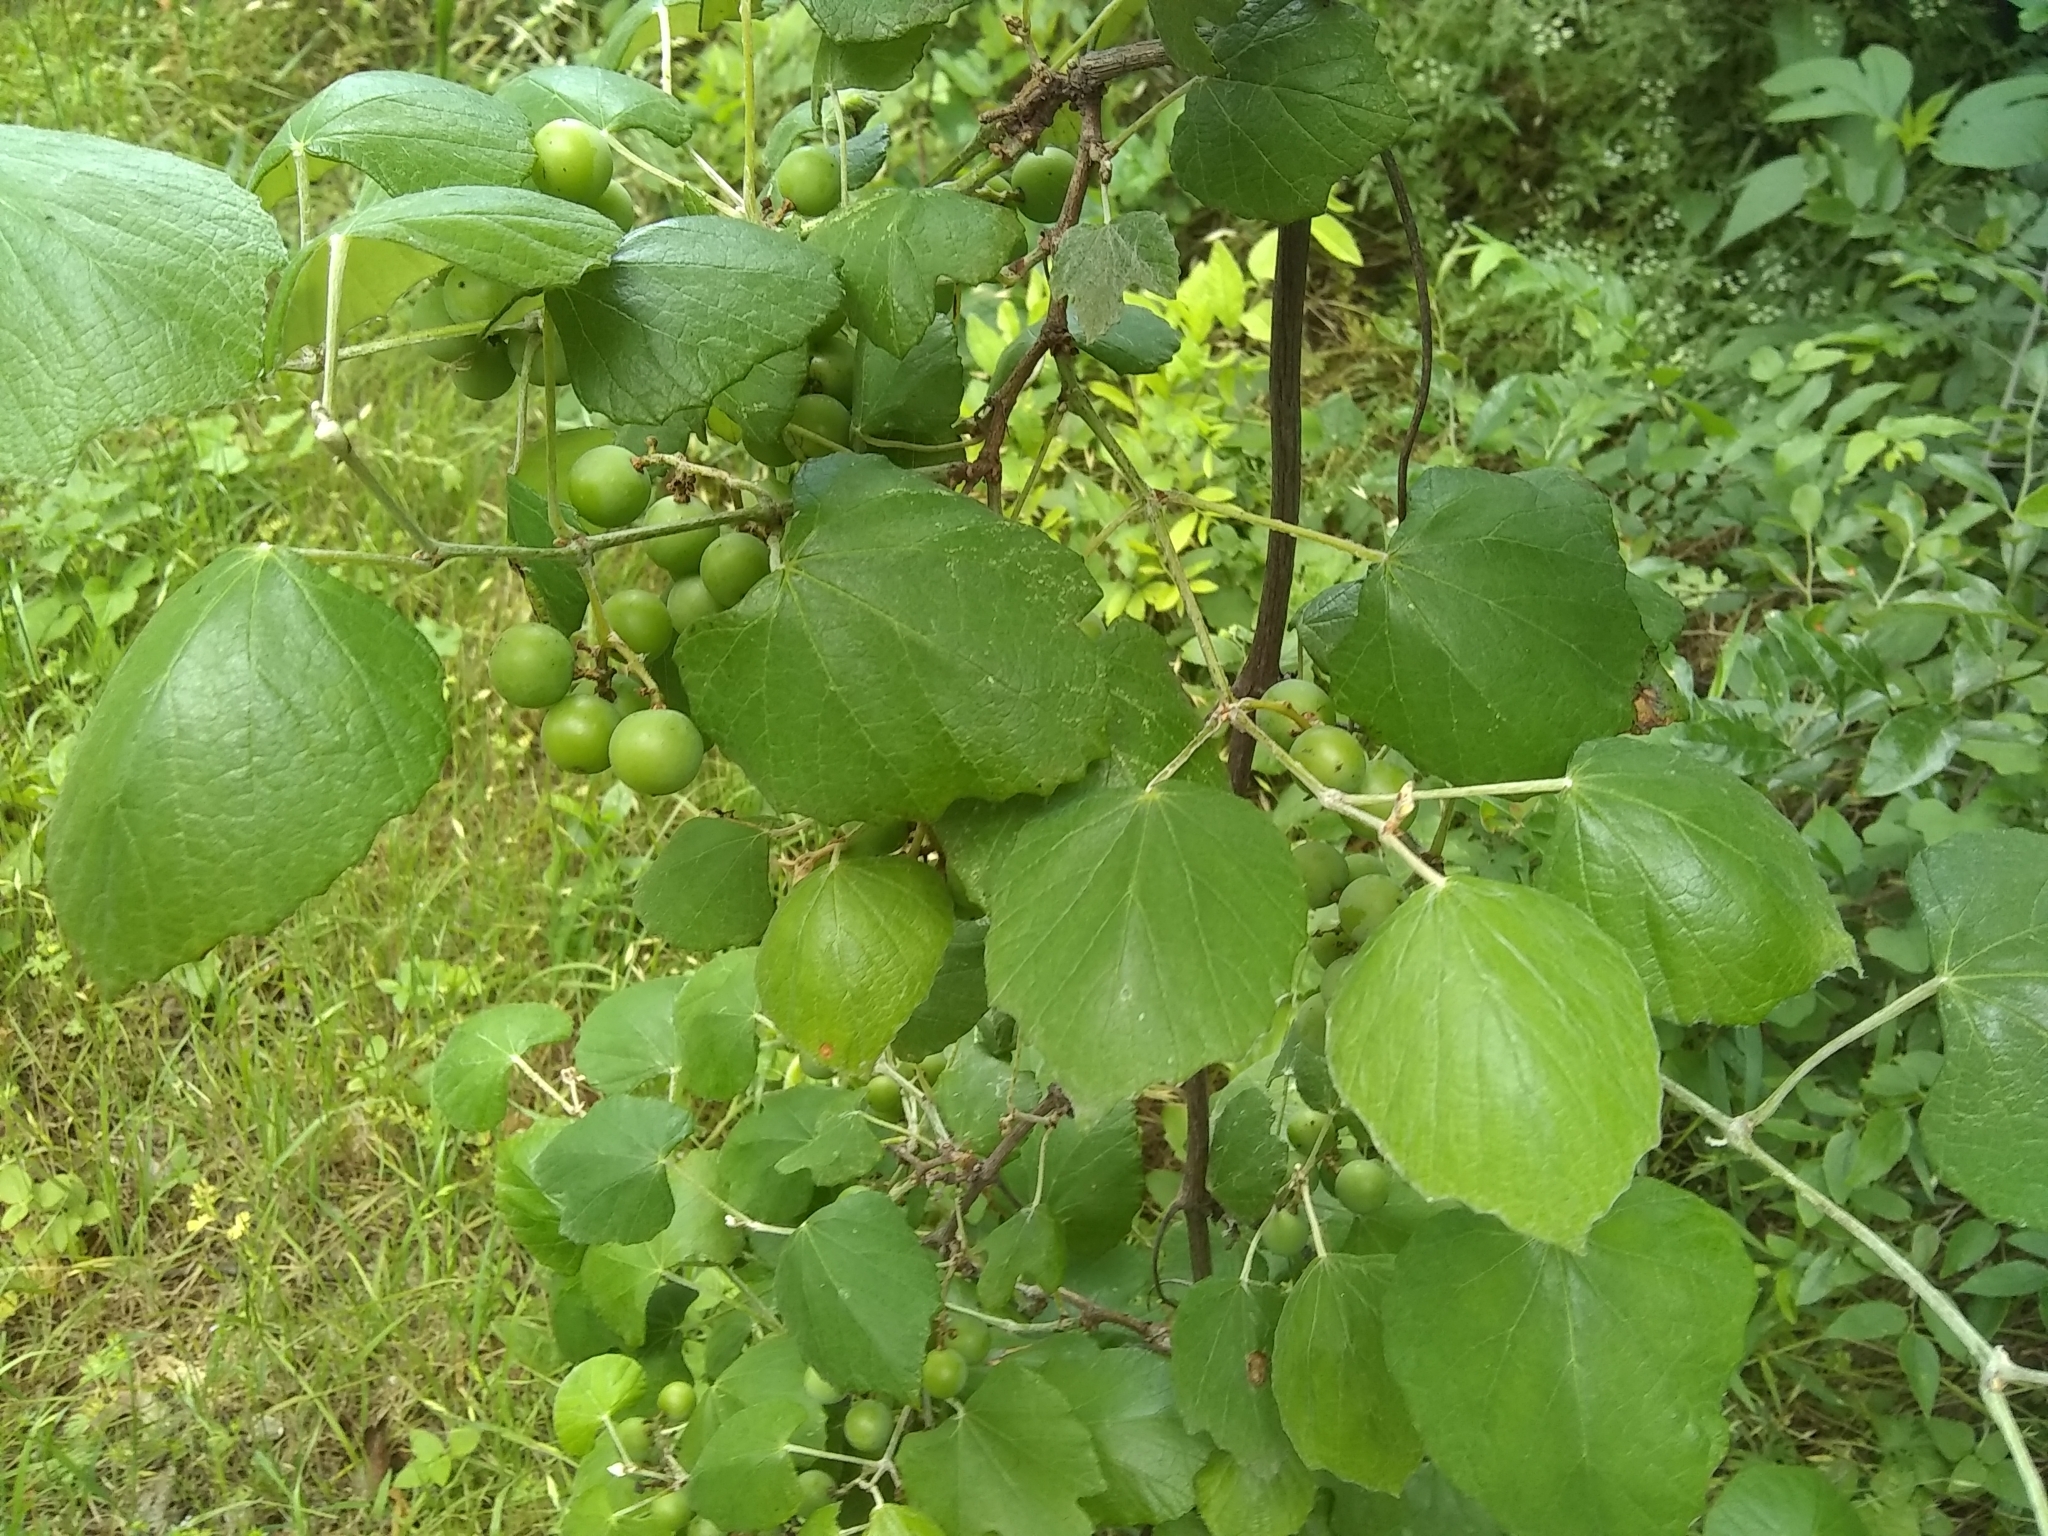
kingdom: Plantae
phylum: Tracheophyta
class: Magnoliopsida
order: Vitales
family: Vitaceae
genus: Vitis
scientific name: Vitis mustangensis
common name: Mustang grape
